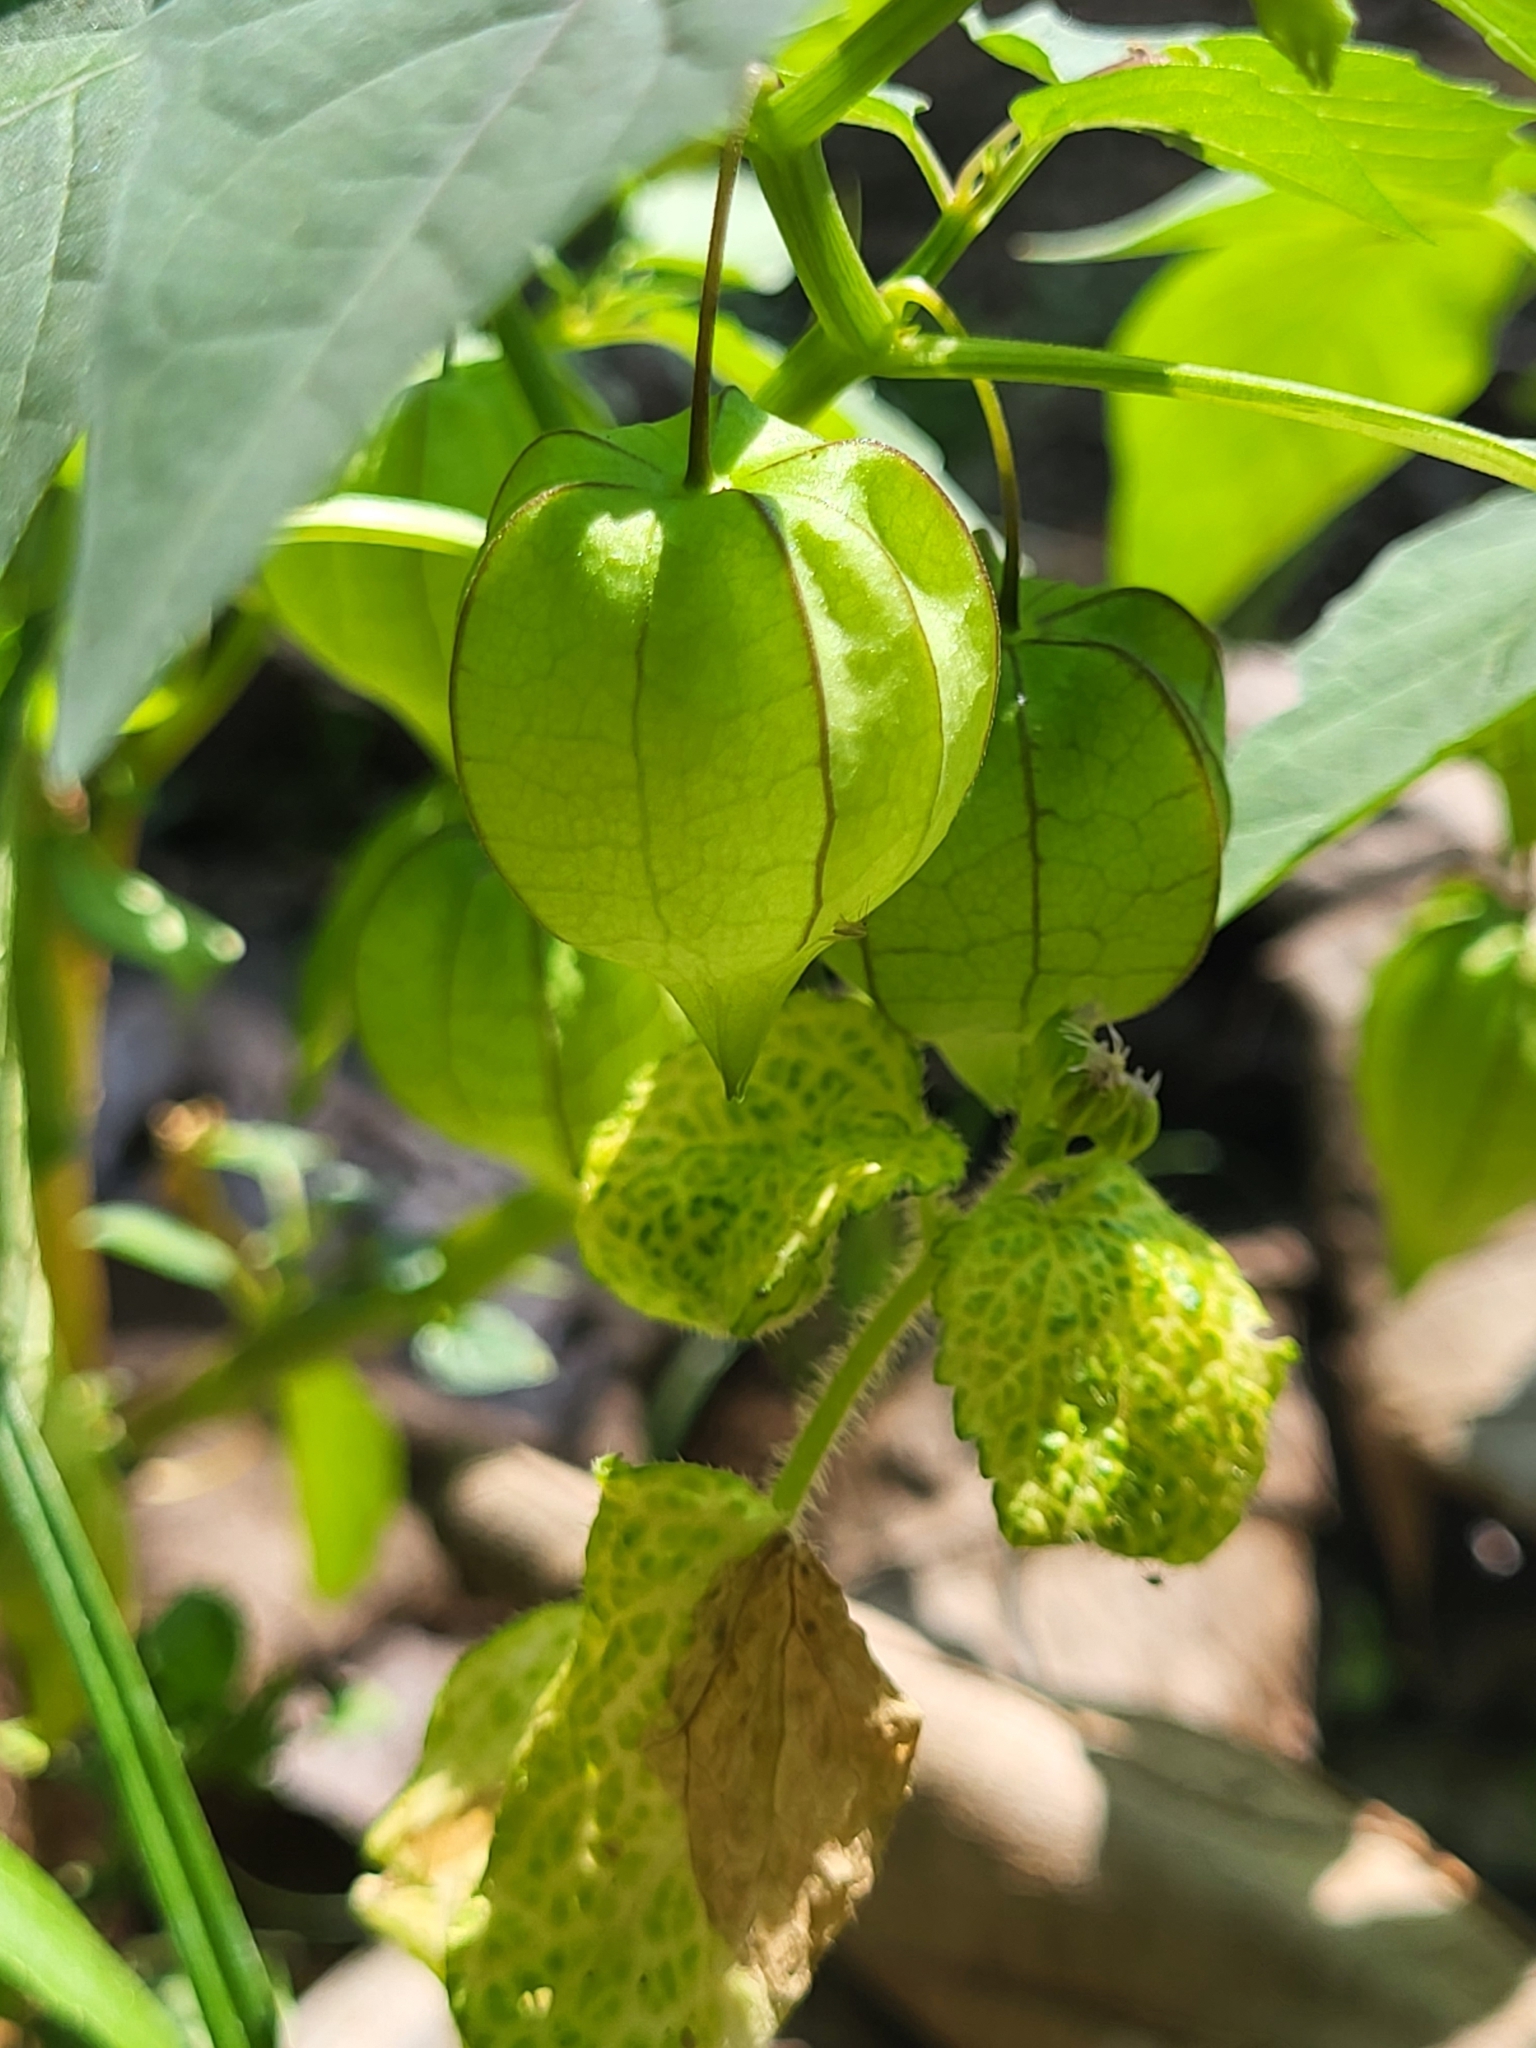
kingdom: Plantae
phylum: Tracheophyta
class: Magnoliopsida
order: Solanales
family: Solanaceae
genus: Physalis
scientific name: Physalis angulata
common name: Angular winter-cherry
